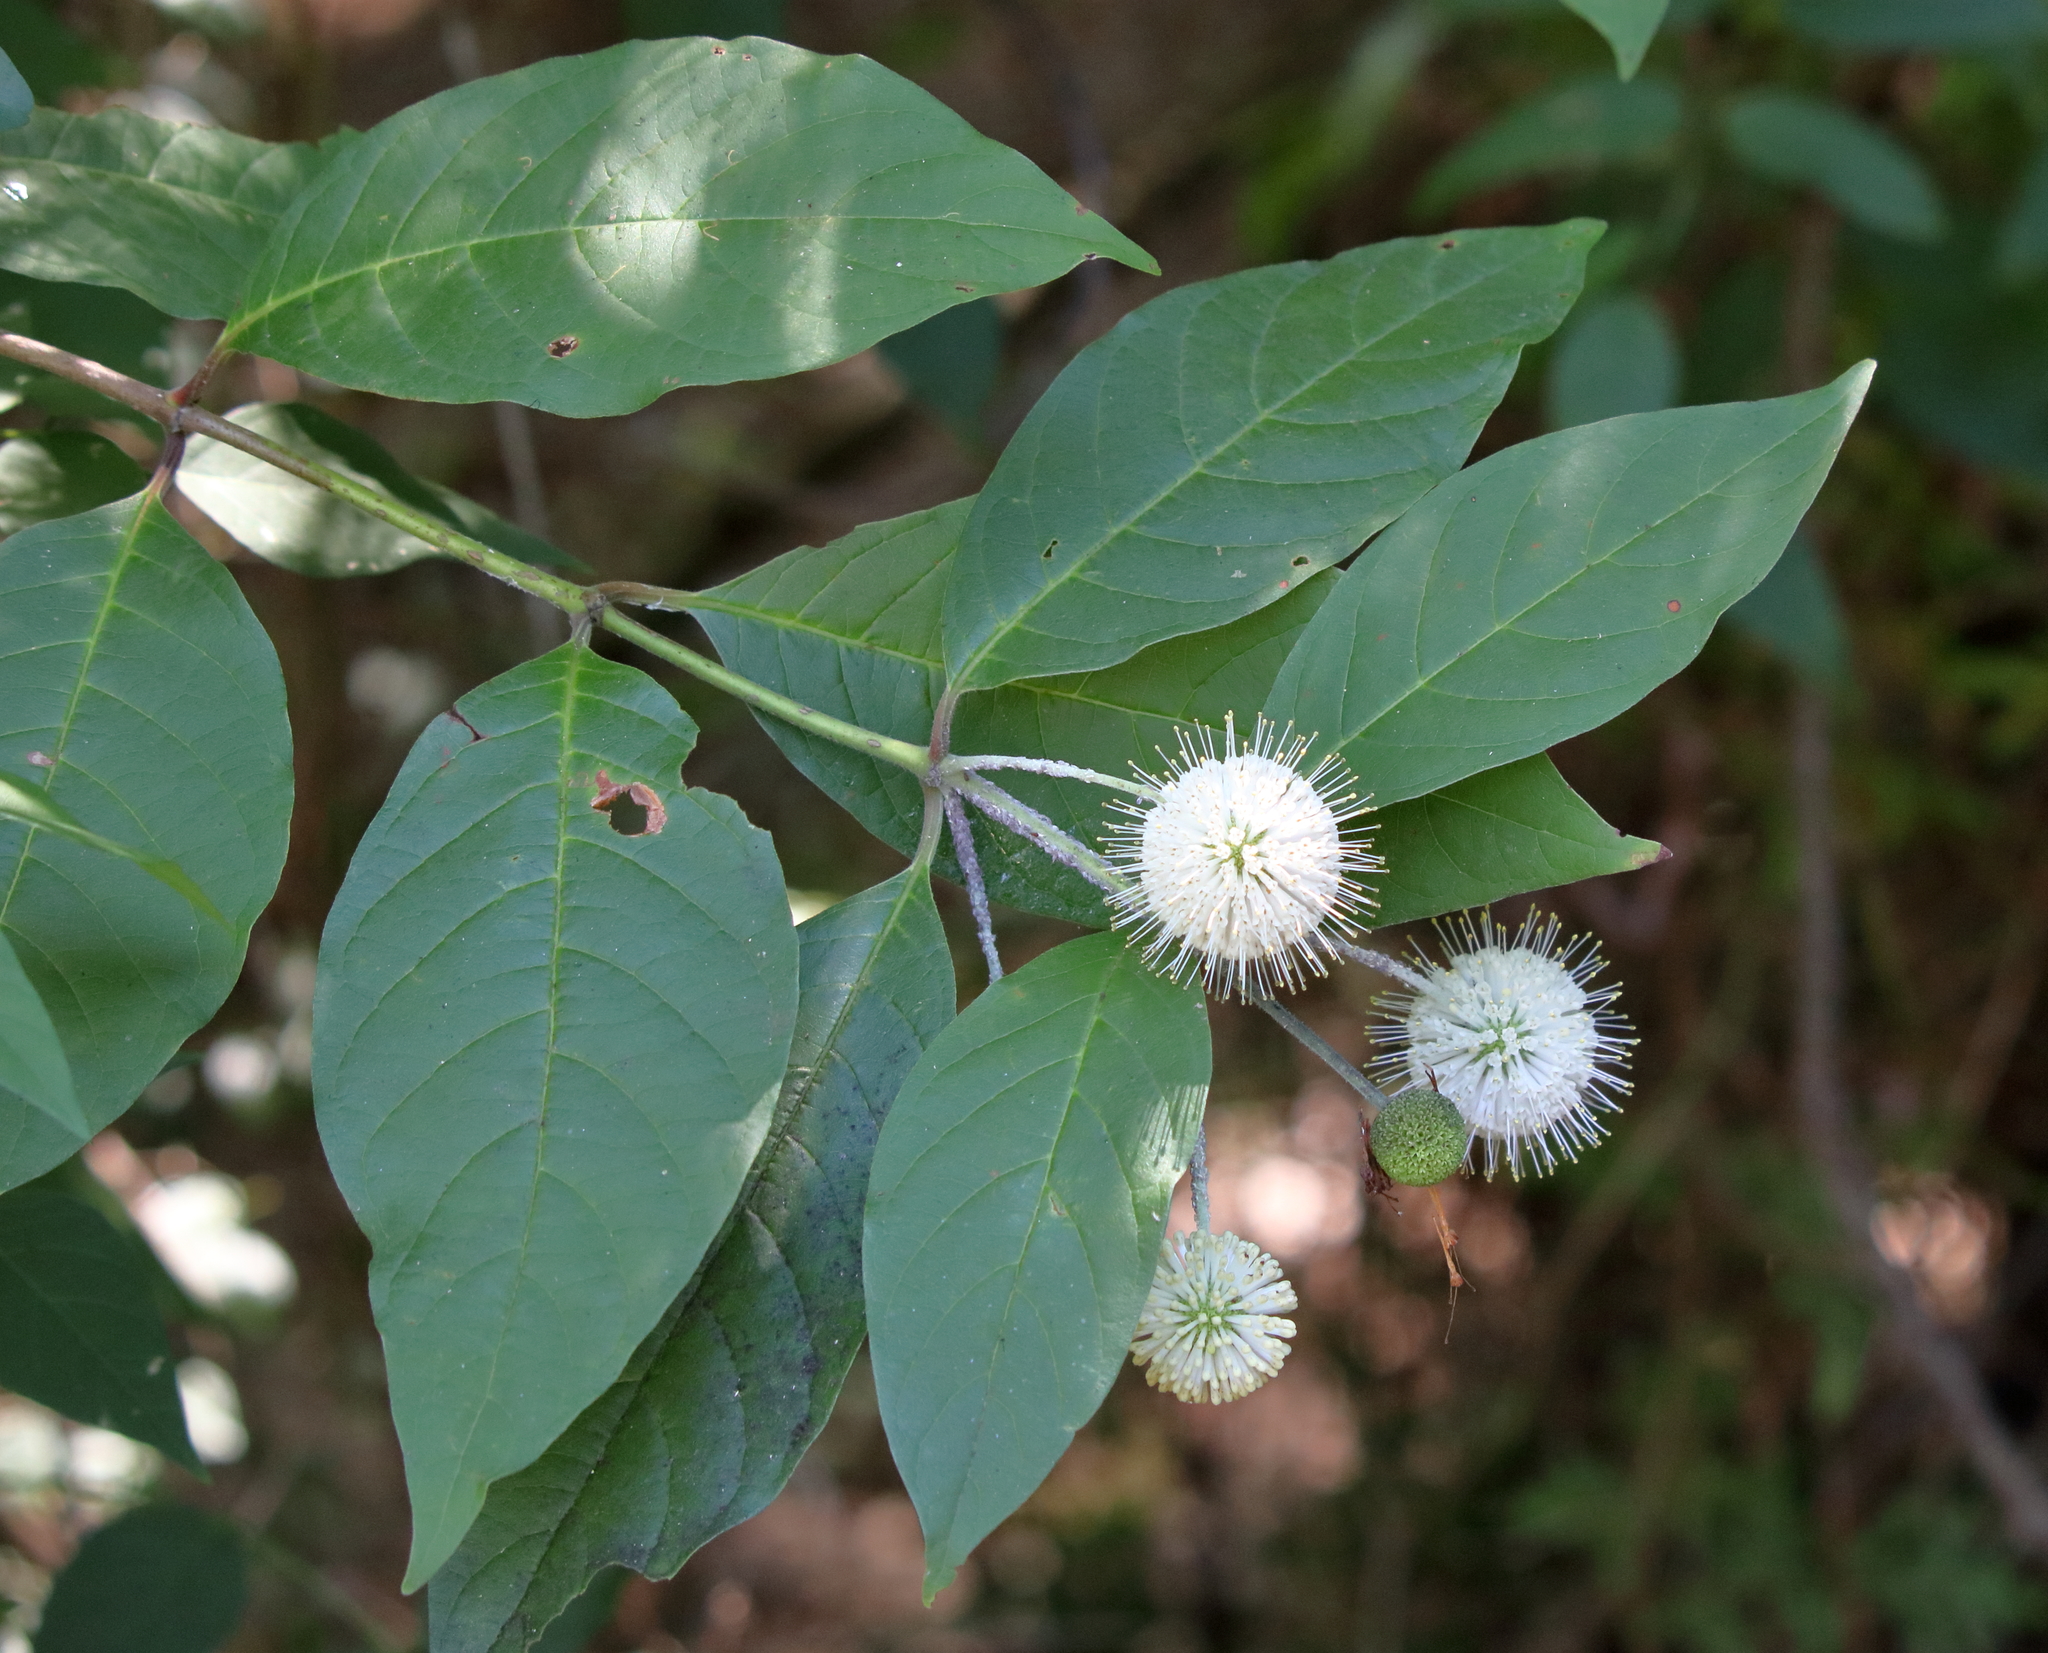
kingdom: Plantae
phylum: Tracheophyta
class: Magnoliopsida
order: Gentianales
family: Rubiaceae
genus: Cephalanthus
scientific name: Cephalanthus occidentalis
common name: Button-willow
